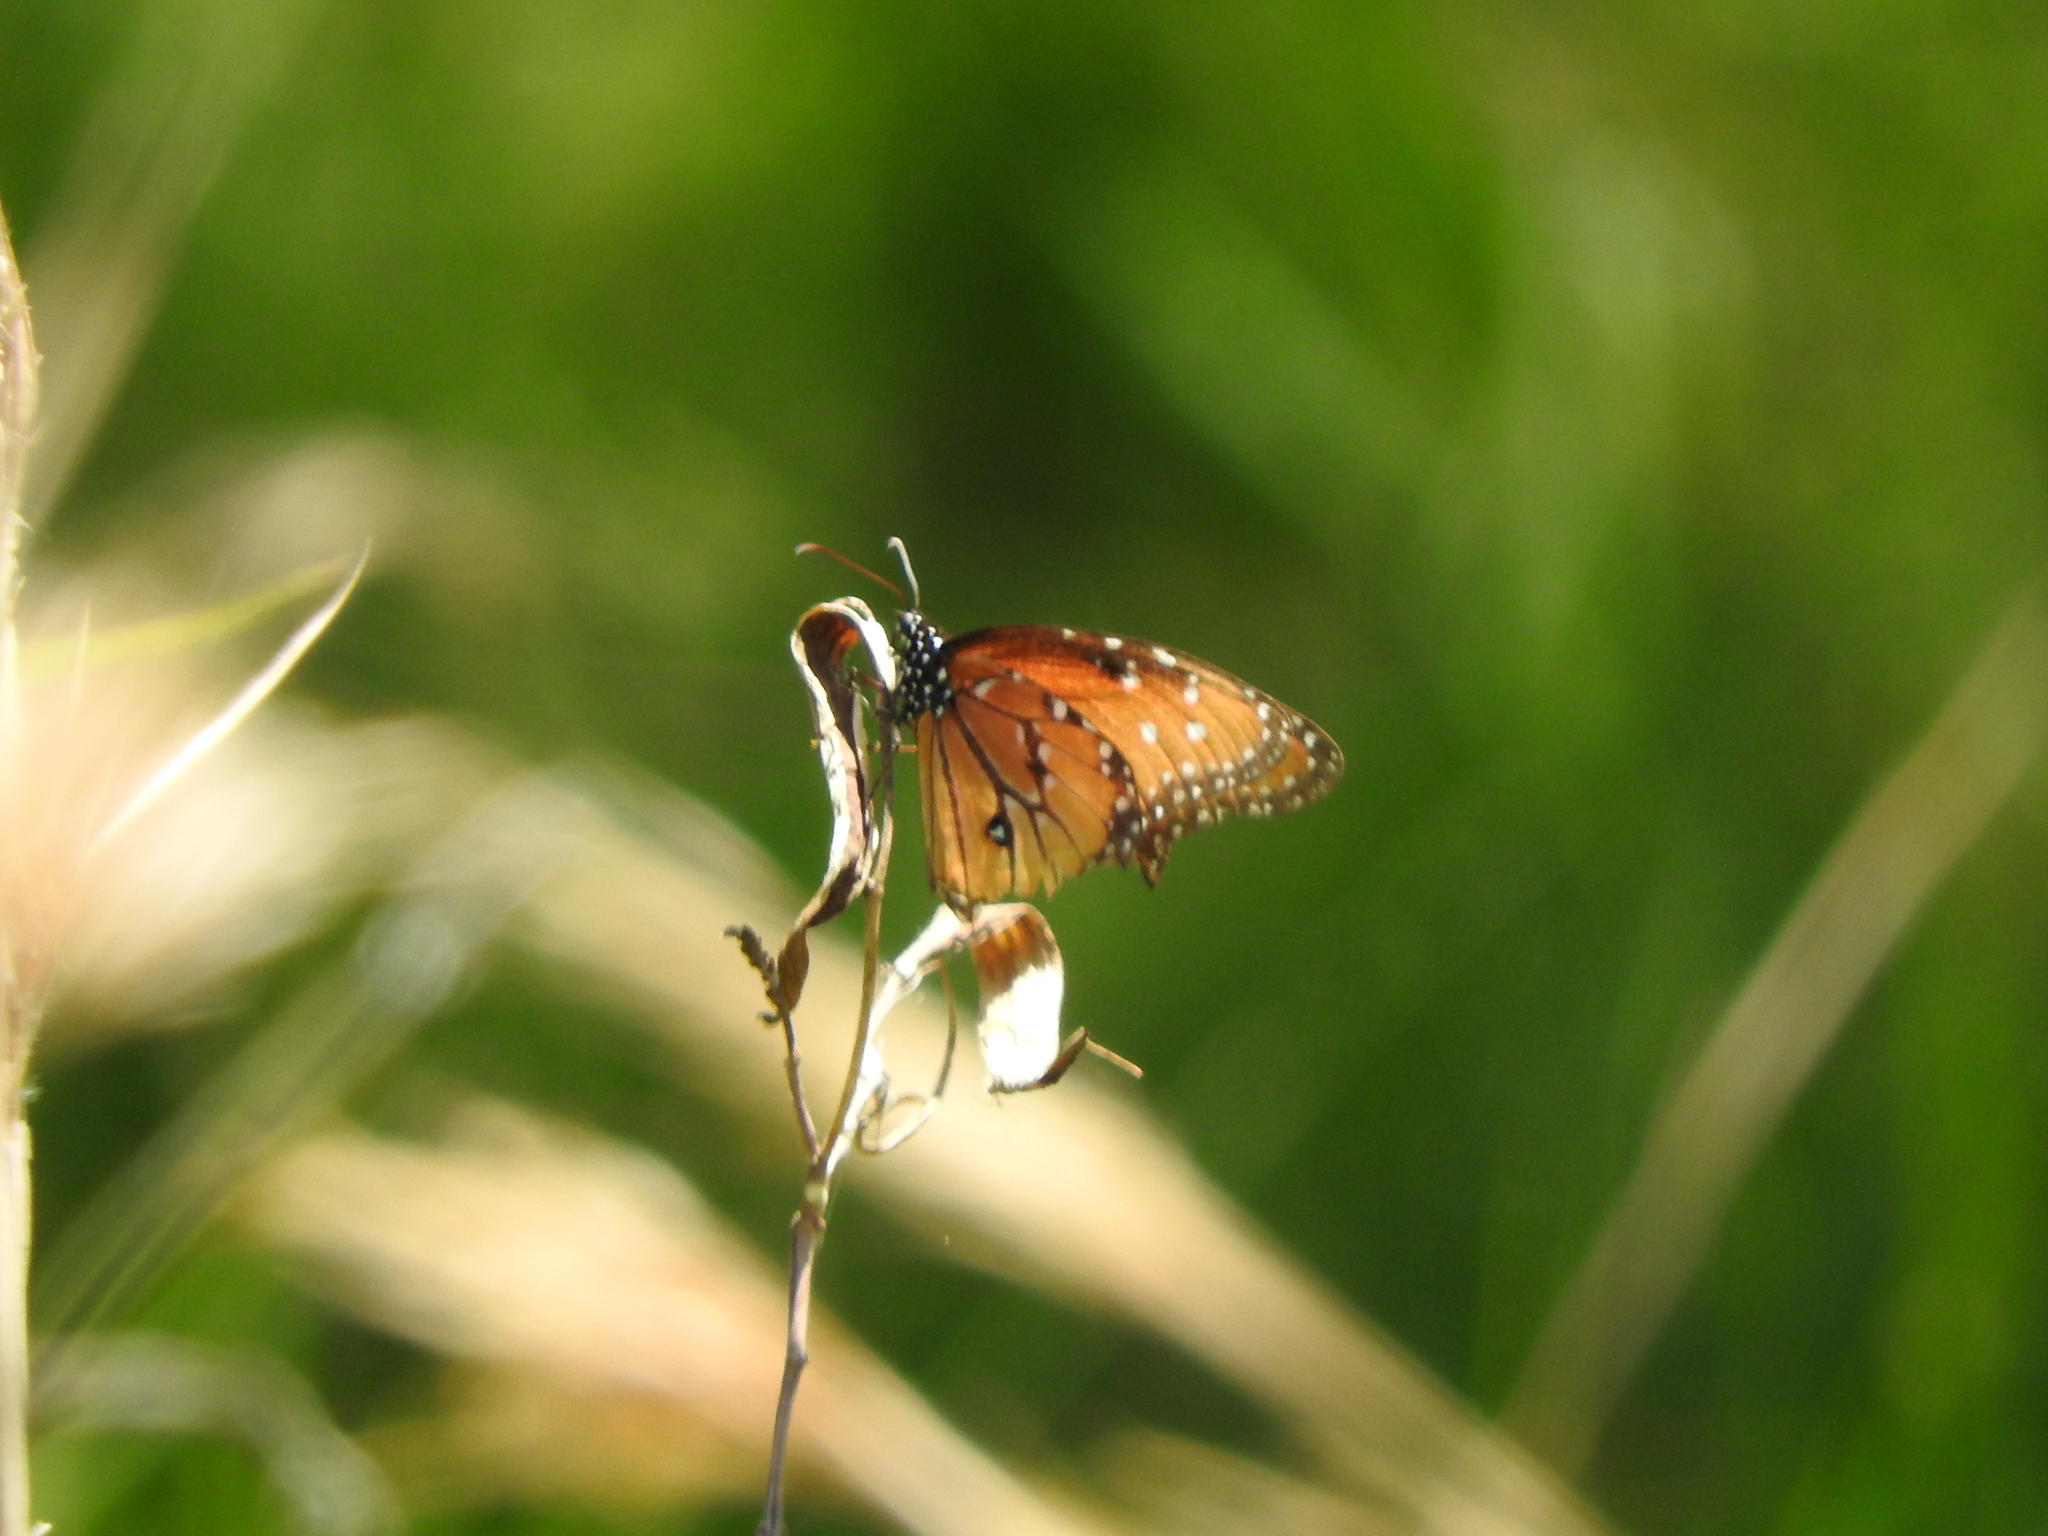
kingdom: Animalia
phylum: Arthropoda
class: Insecta
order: Lepidoptera
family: Nymphalidae
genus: Danaus
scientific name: Danaus gilippus
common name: Queen
